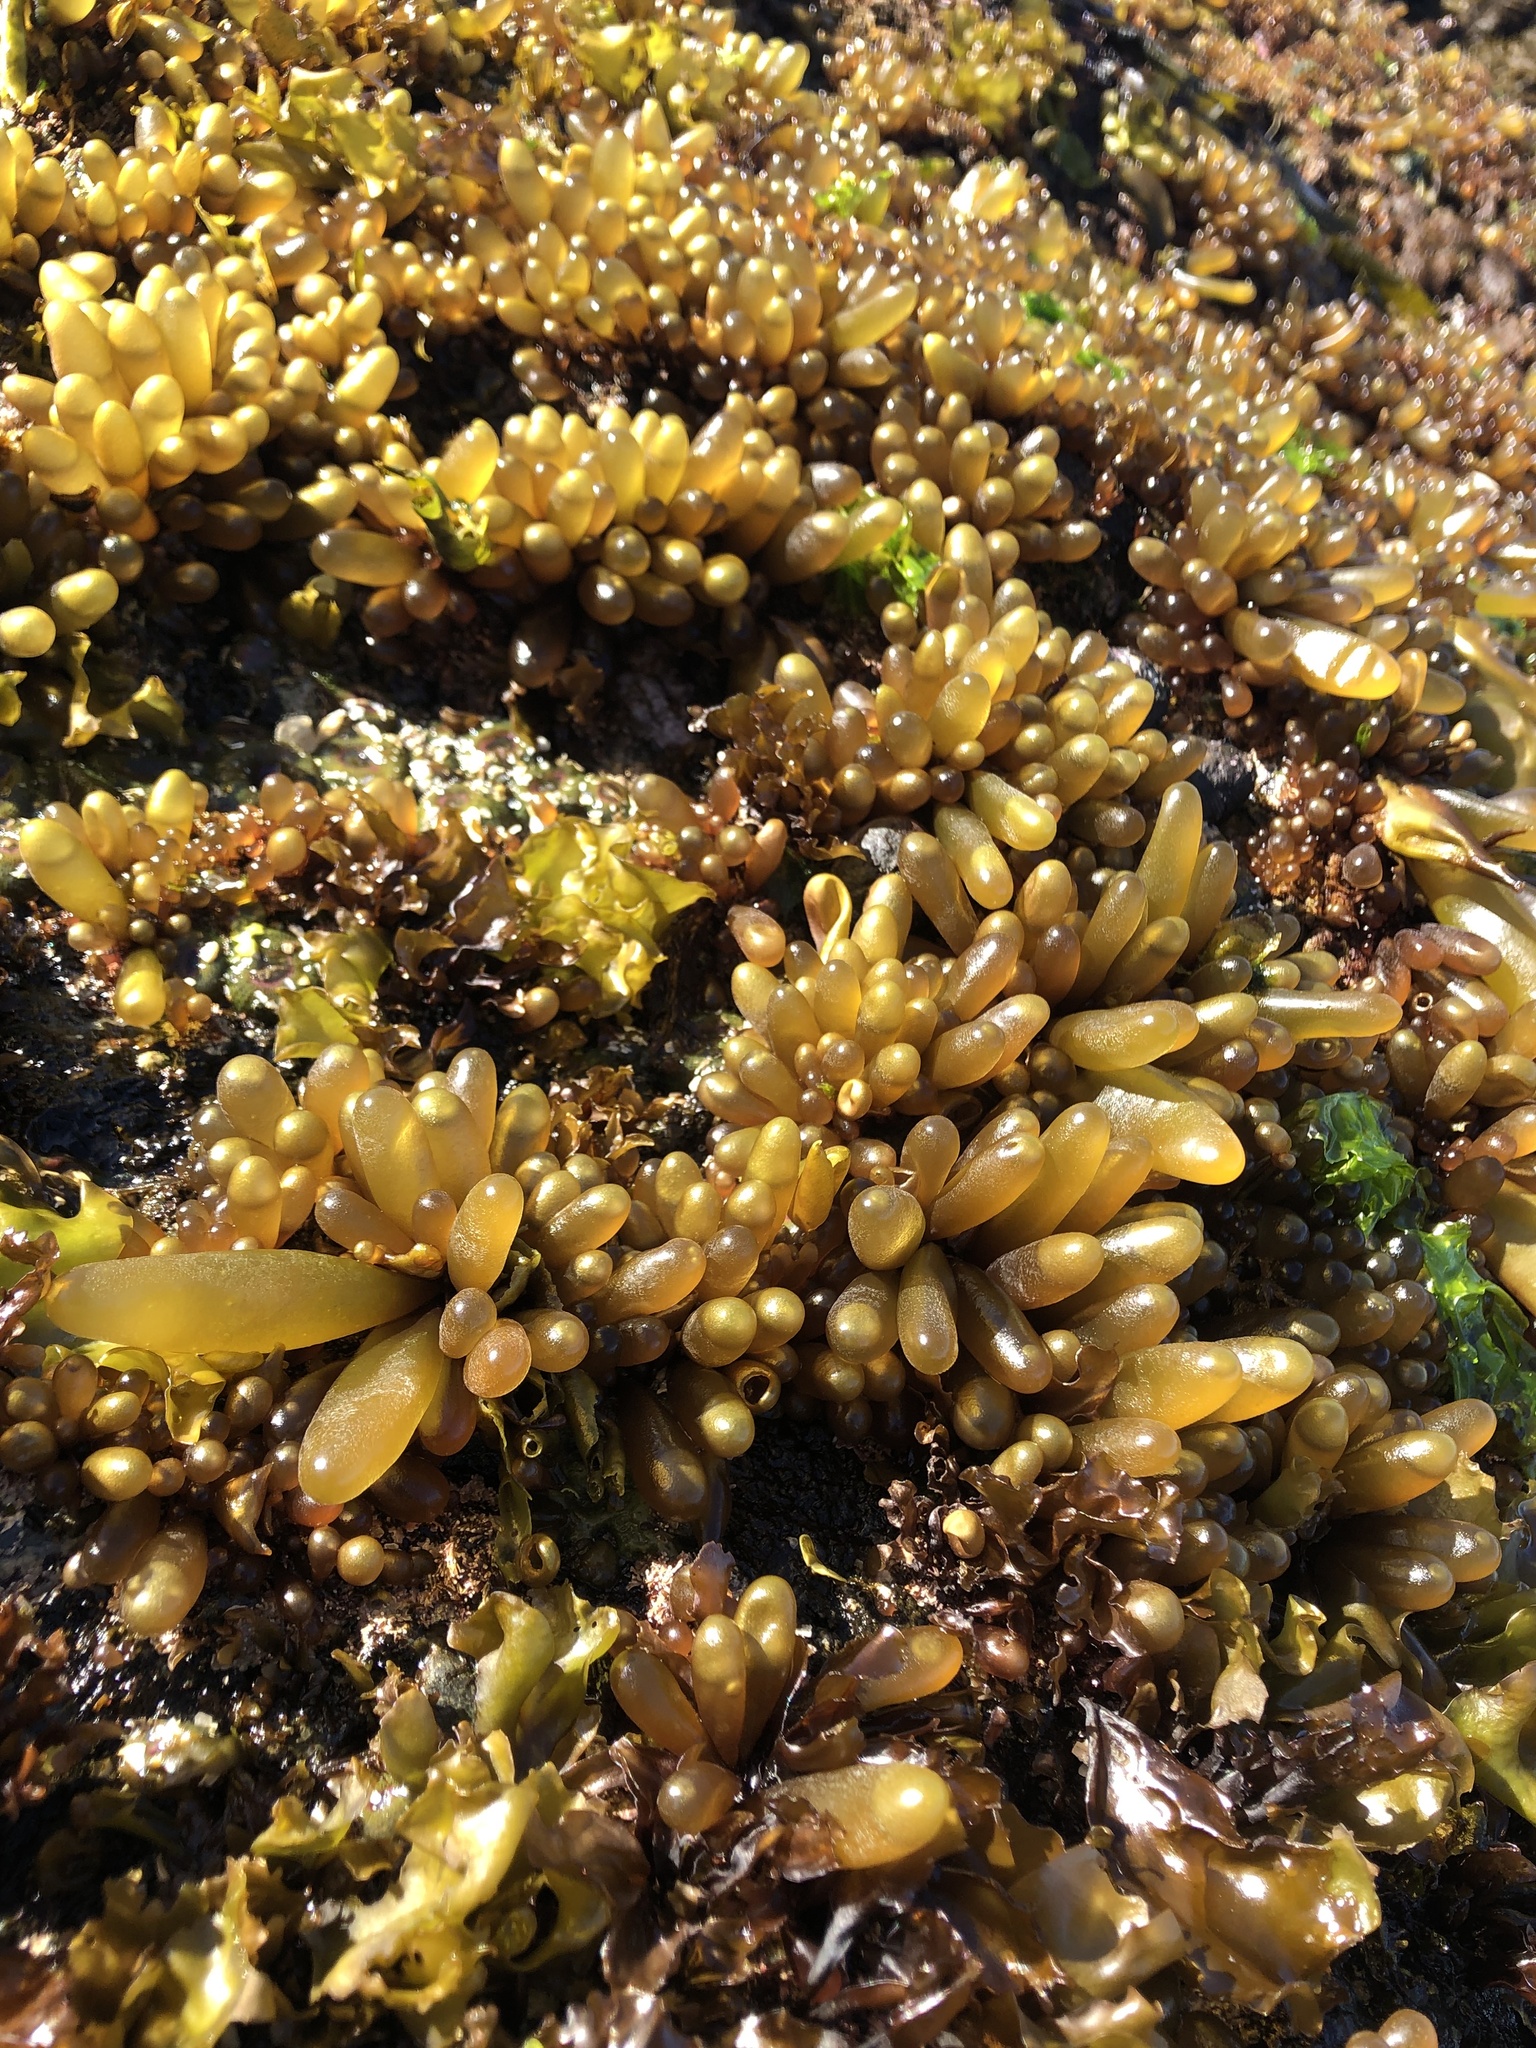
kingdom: Plantae
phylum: Rhodophyta
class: Florideophyceae
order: Palmariales
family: Palmariaceae
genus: Halosaccion
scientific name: Halosaccion glandiforme
